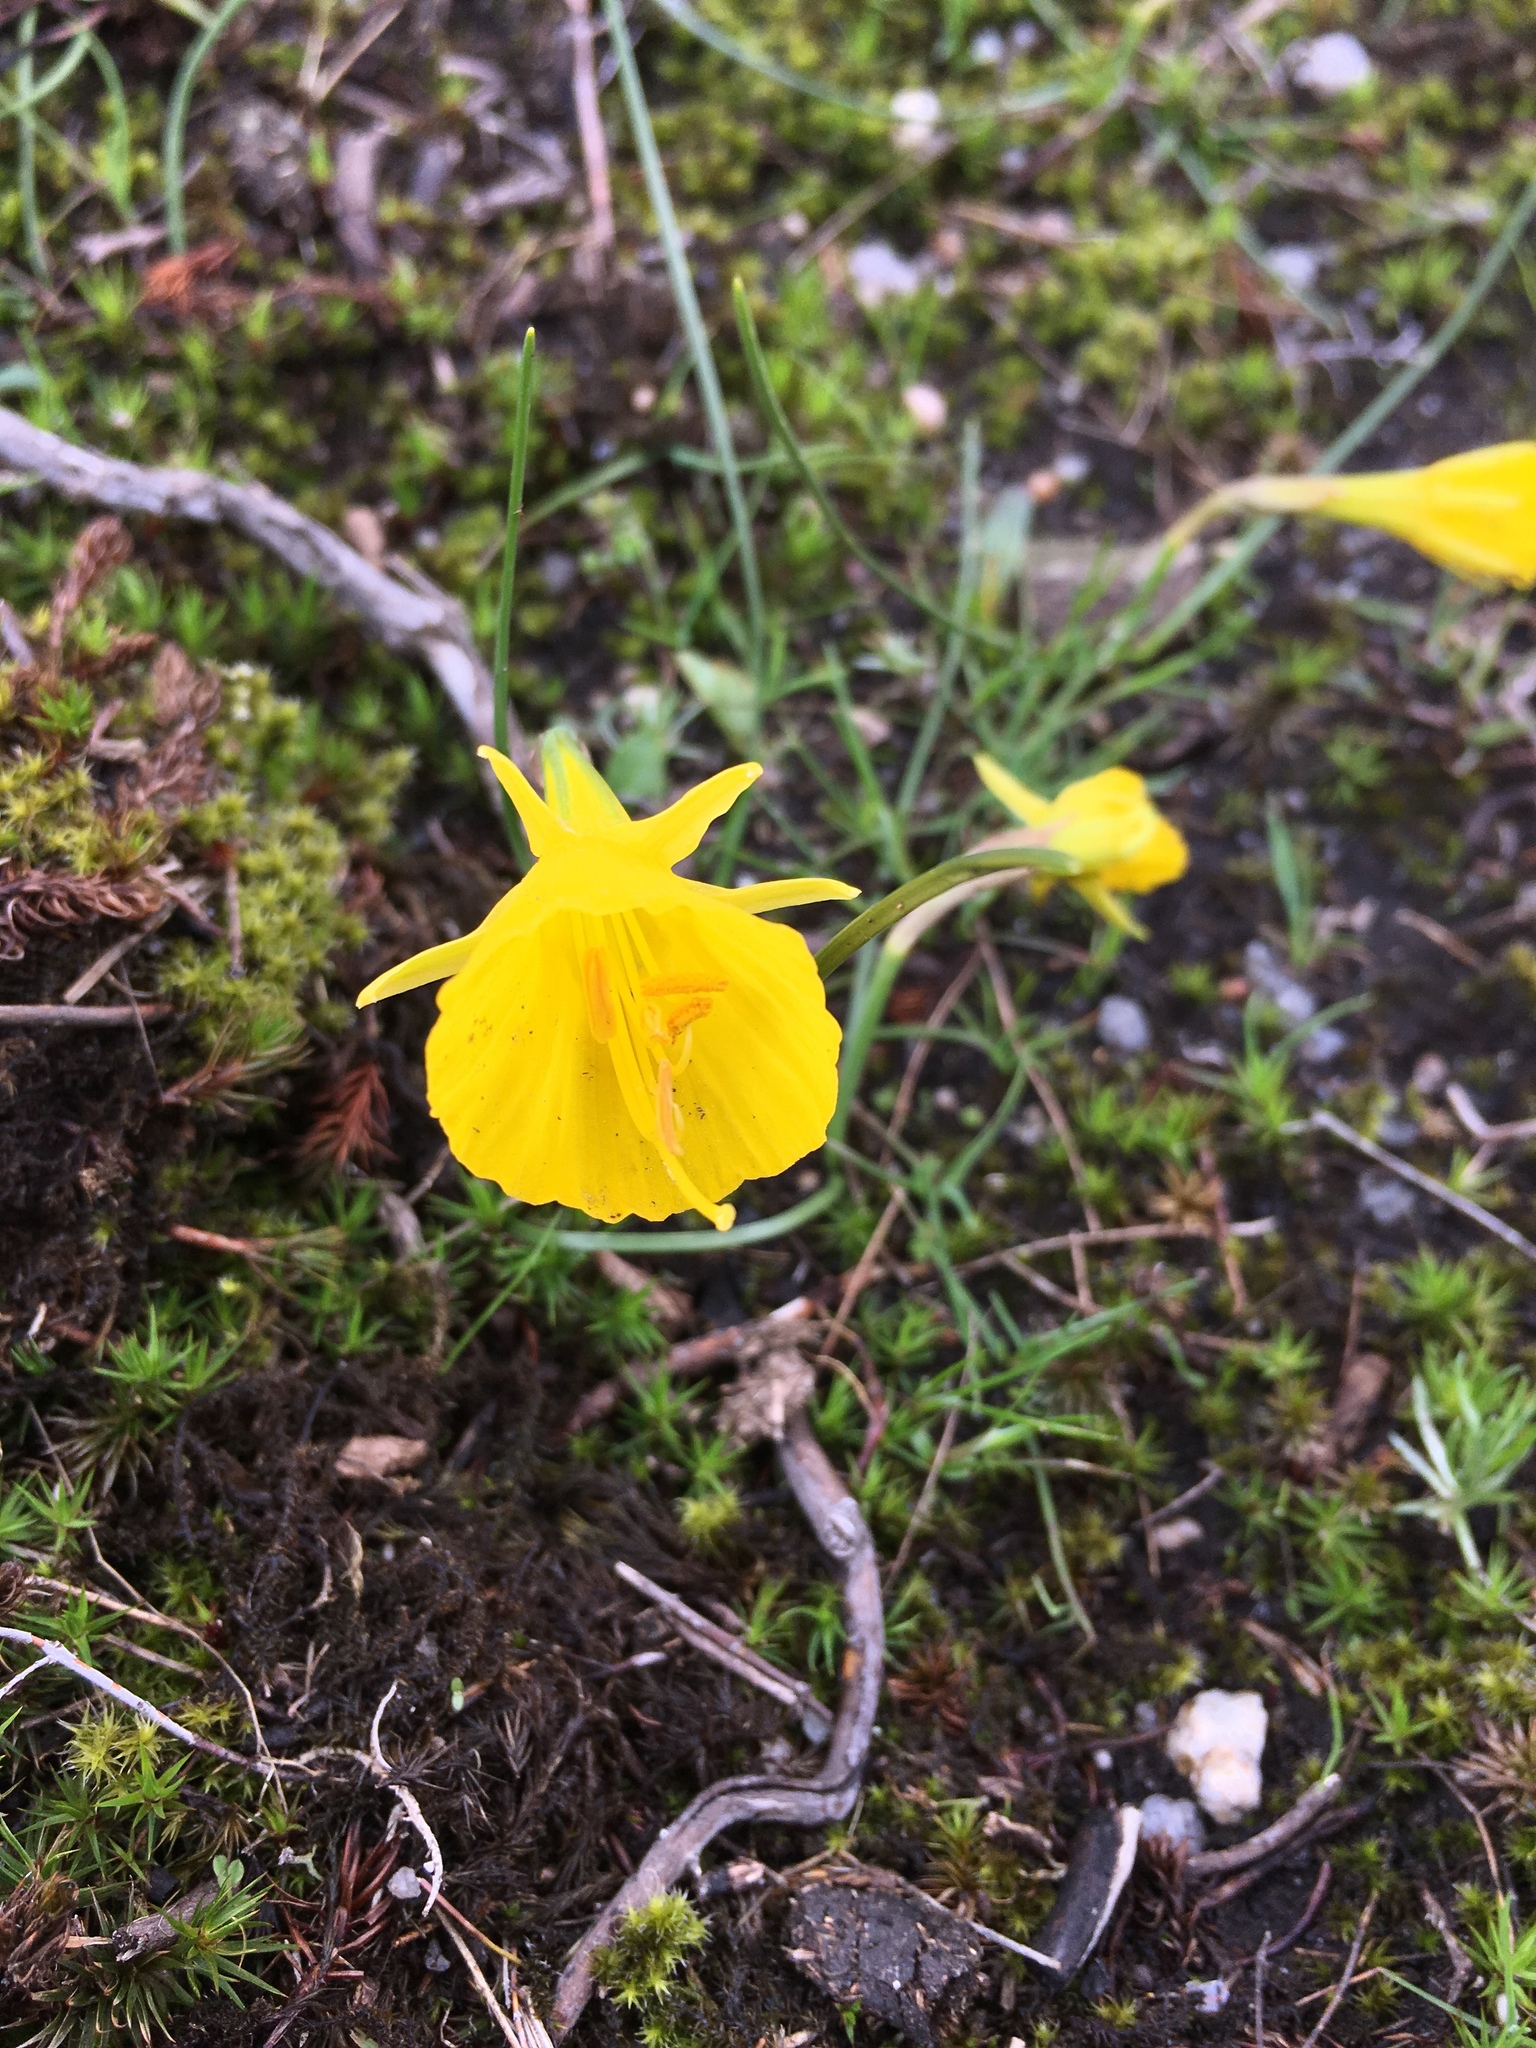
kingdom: Plantae
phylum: Tracheophyta
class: Liliopsida
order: Asparagales
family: Amaryllidaceae
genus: Narcissus
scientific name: Narcissus bulbocodium
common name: Hoop-petticoat daffodil
